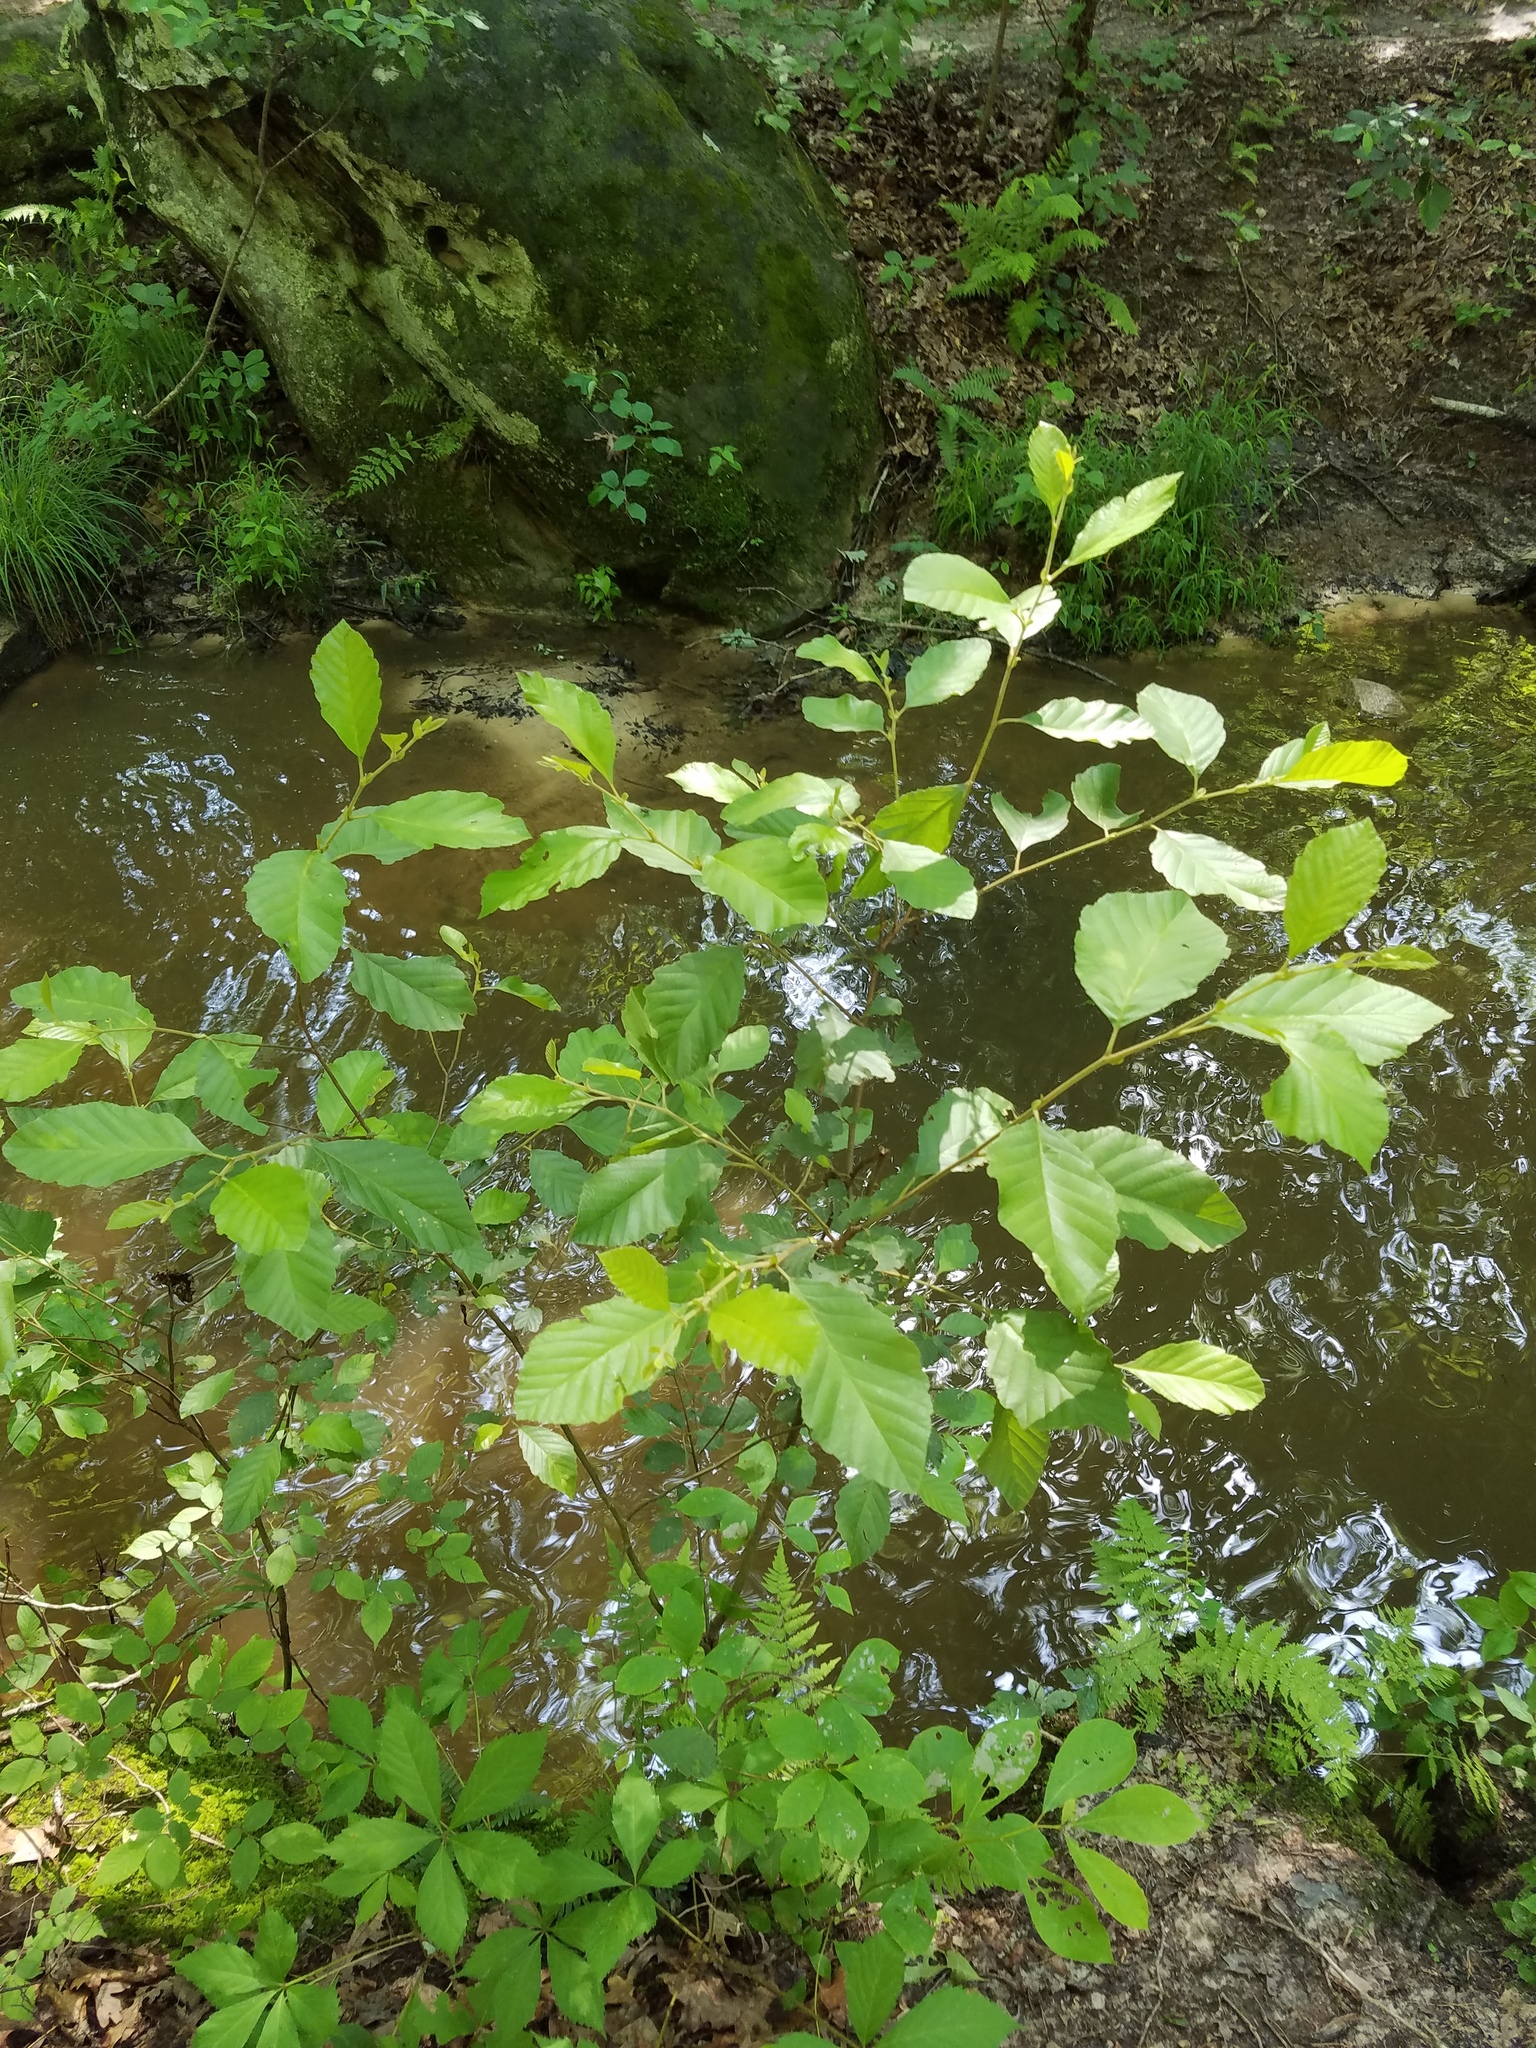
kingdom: Plantae
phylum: Tracheophyta
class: Magnoliopsida
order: Fagales
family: Betulaceae
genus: Alnus
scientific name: Alnus serrulata
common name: Hazel alder
